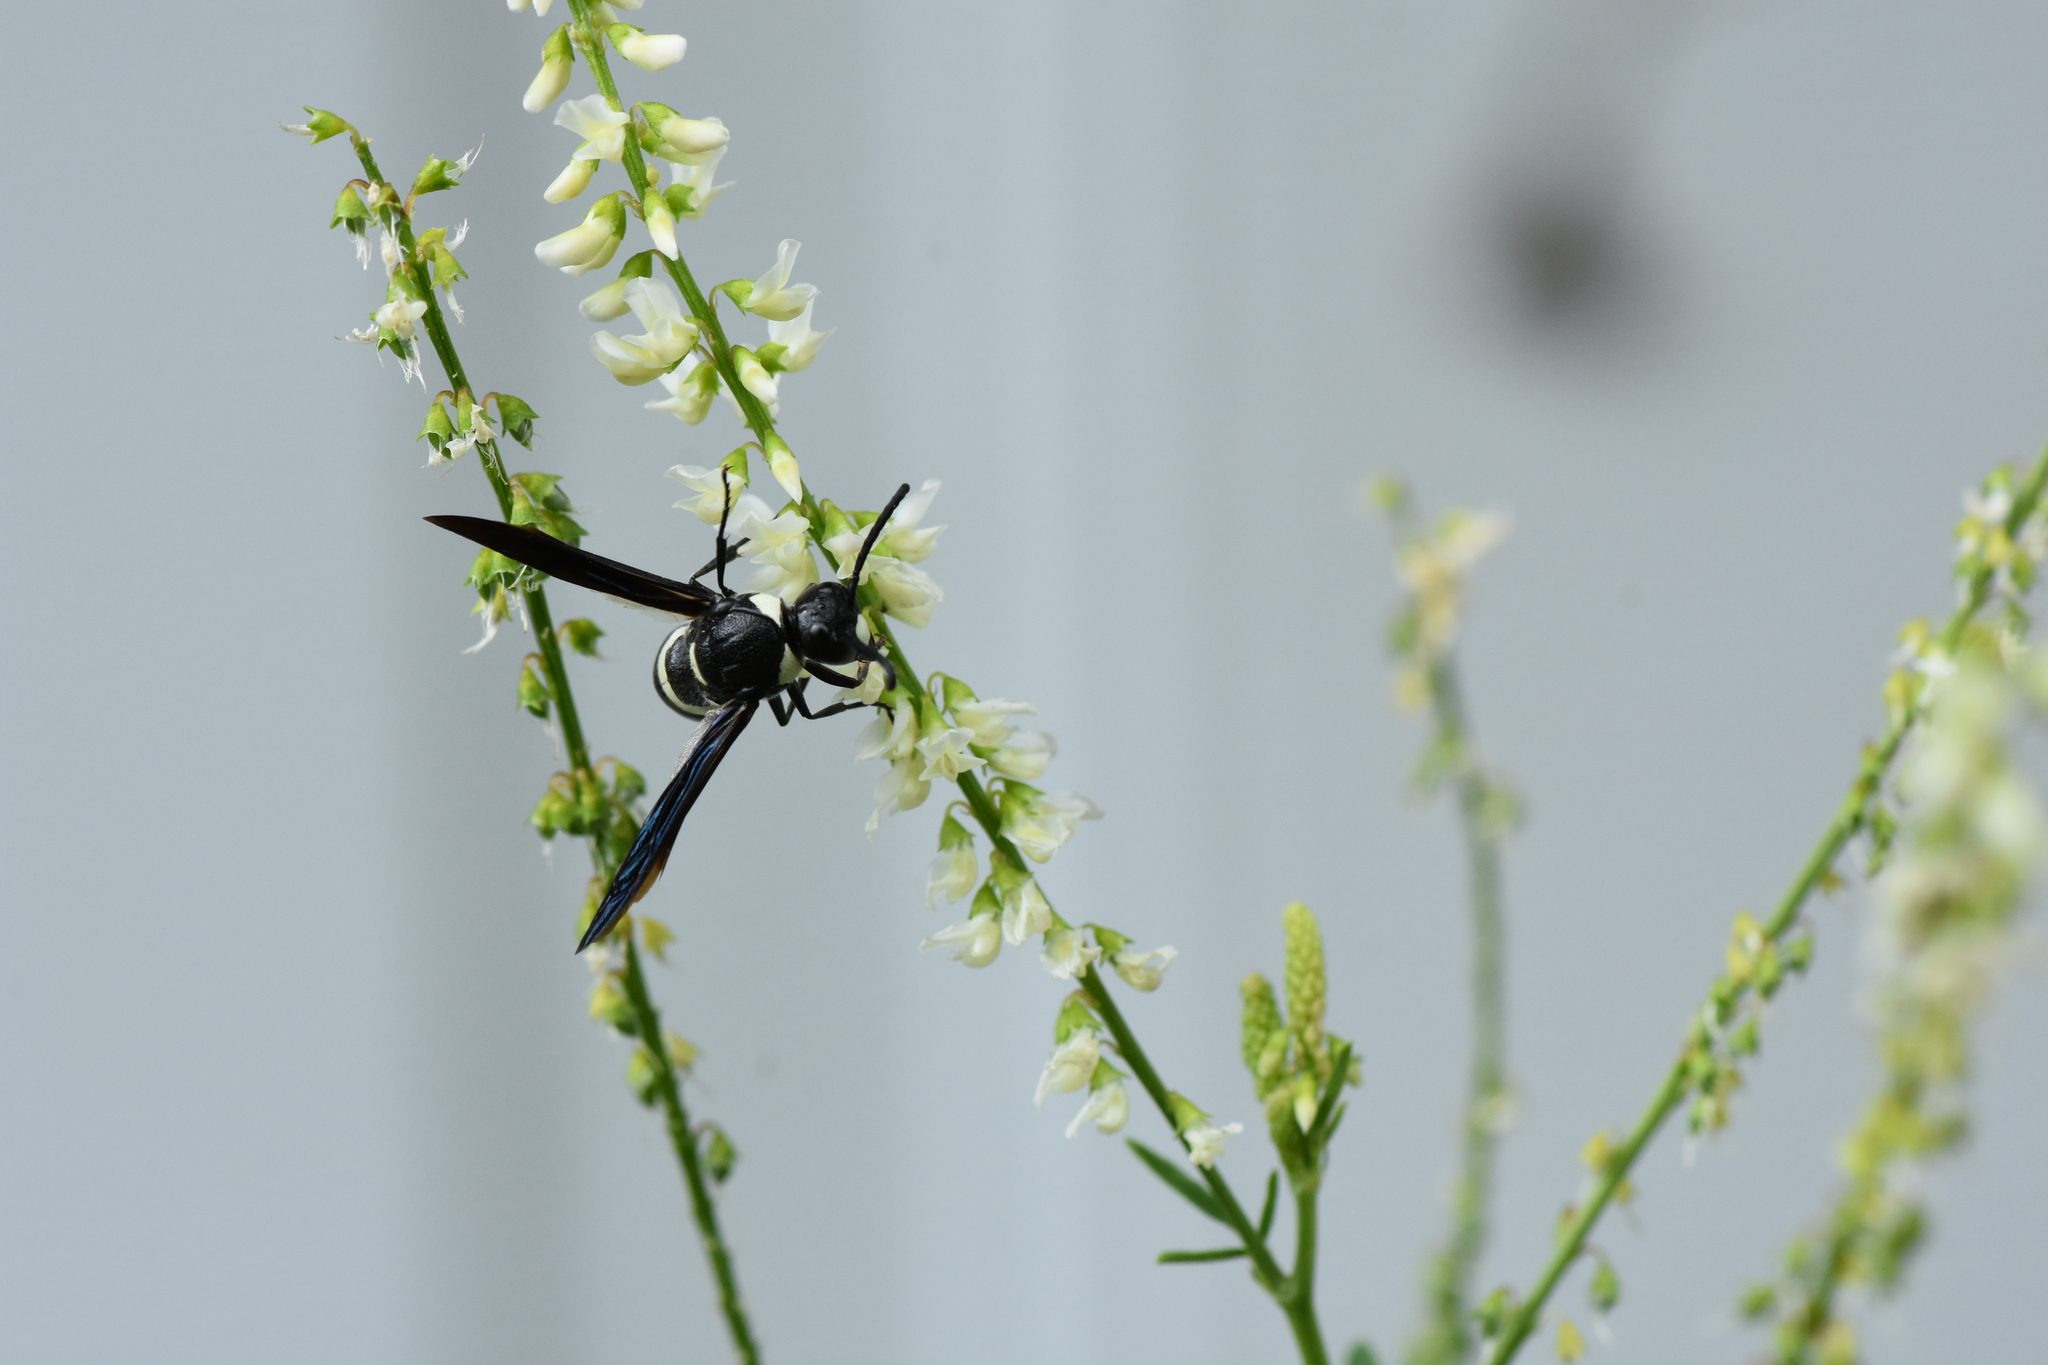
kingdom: Animalia
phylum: Arthropoda
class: Insecta
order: Hymenoptera
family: Eumenidae
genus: Monobia
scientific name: Monobia quadridens
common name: Four-toothed mason wasp
